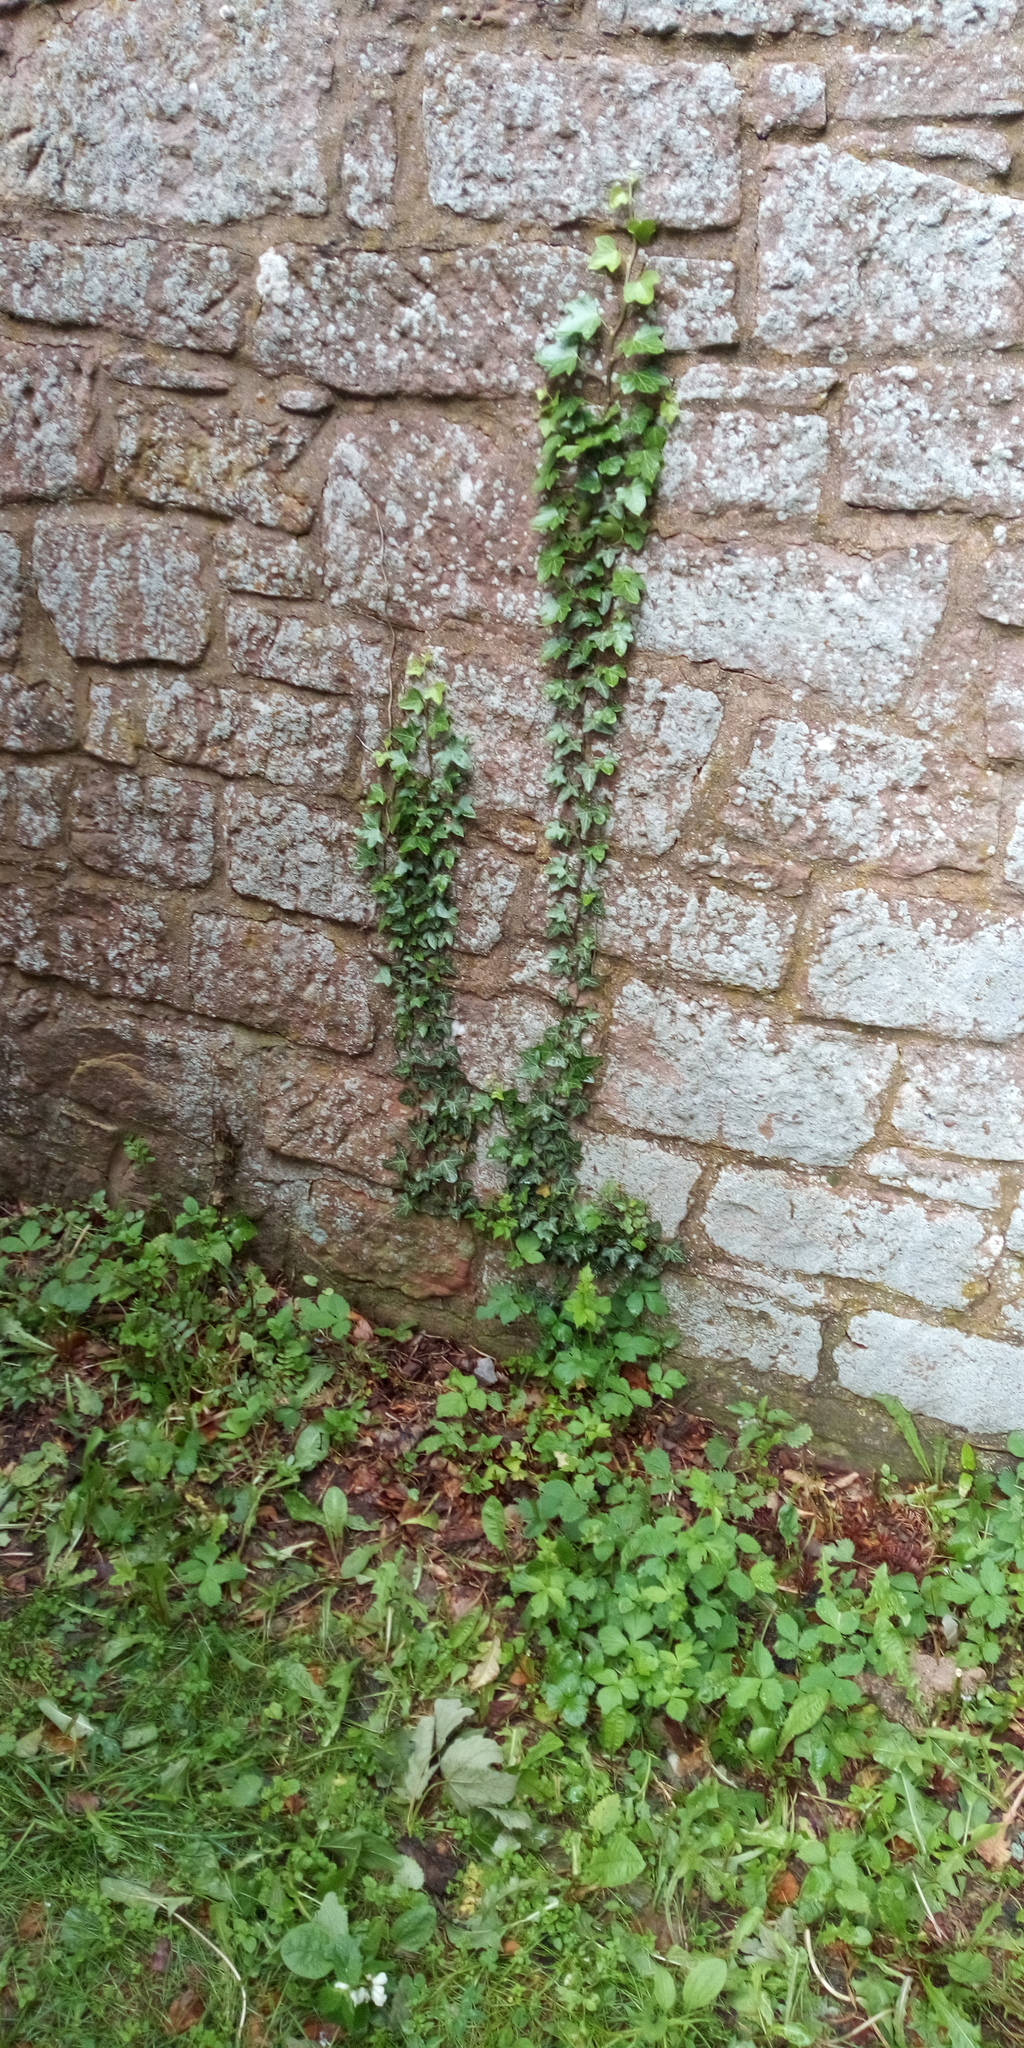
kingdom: Plantae
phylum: Tracheophyta
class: Magnoliopsida
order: Apiales
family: Araliaceae
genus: Hedera
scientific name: Hedera helix
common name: Ivy
